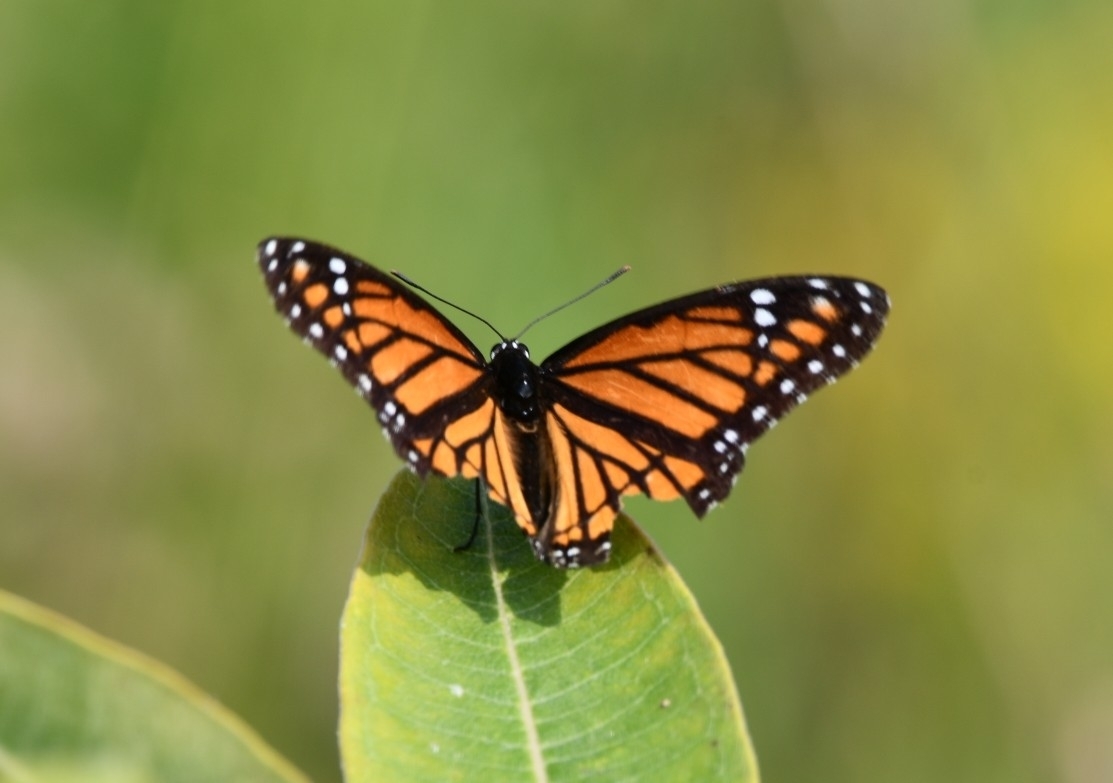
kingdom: Animalia
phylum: Arthropoda
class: Insecta
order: Lepidoptera
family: Nymphalidae
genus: Limenitis
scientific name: Limenitis archippus
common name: Viceroy
